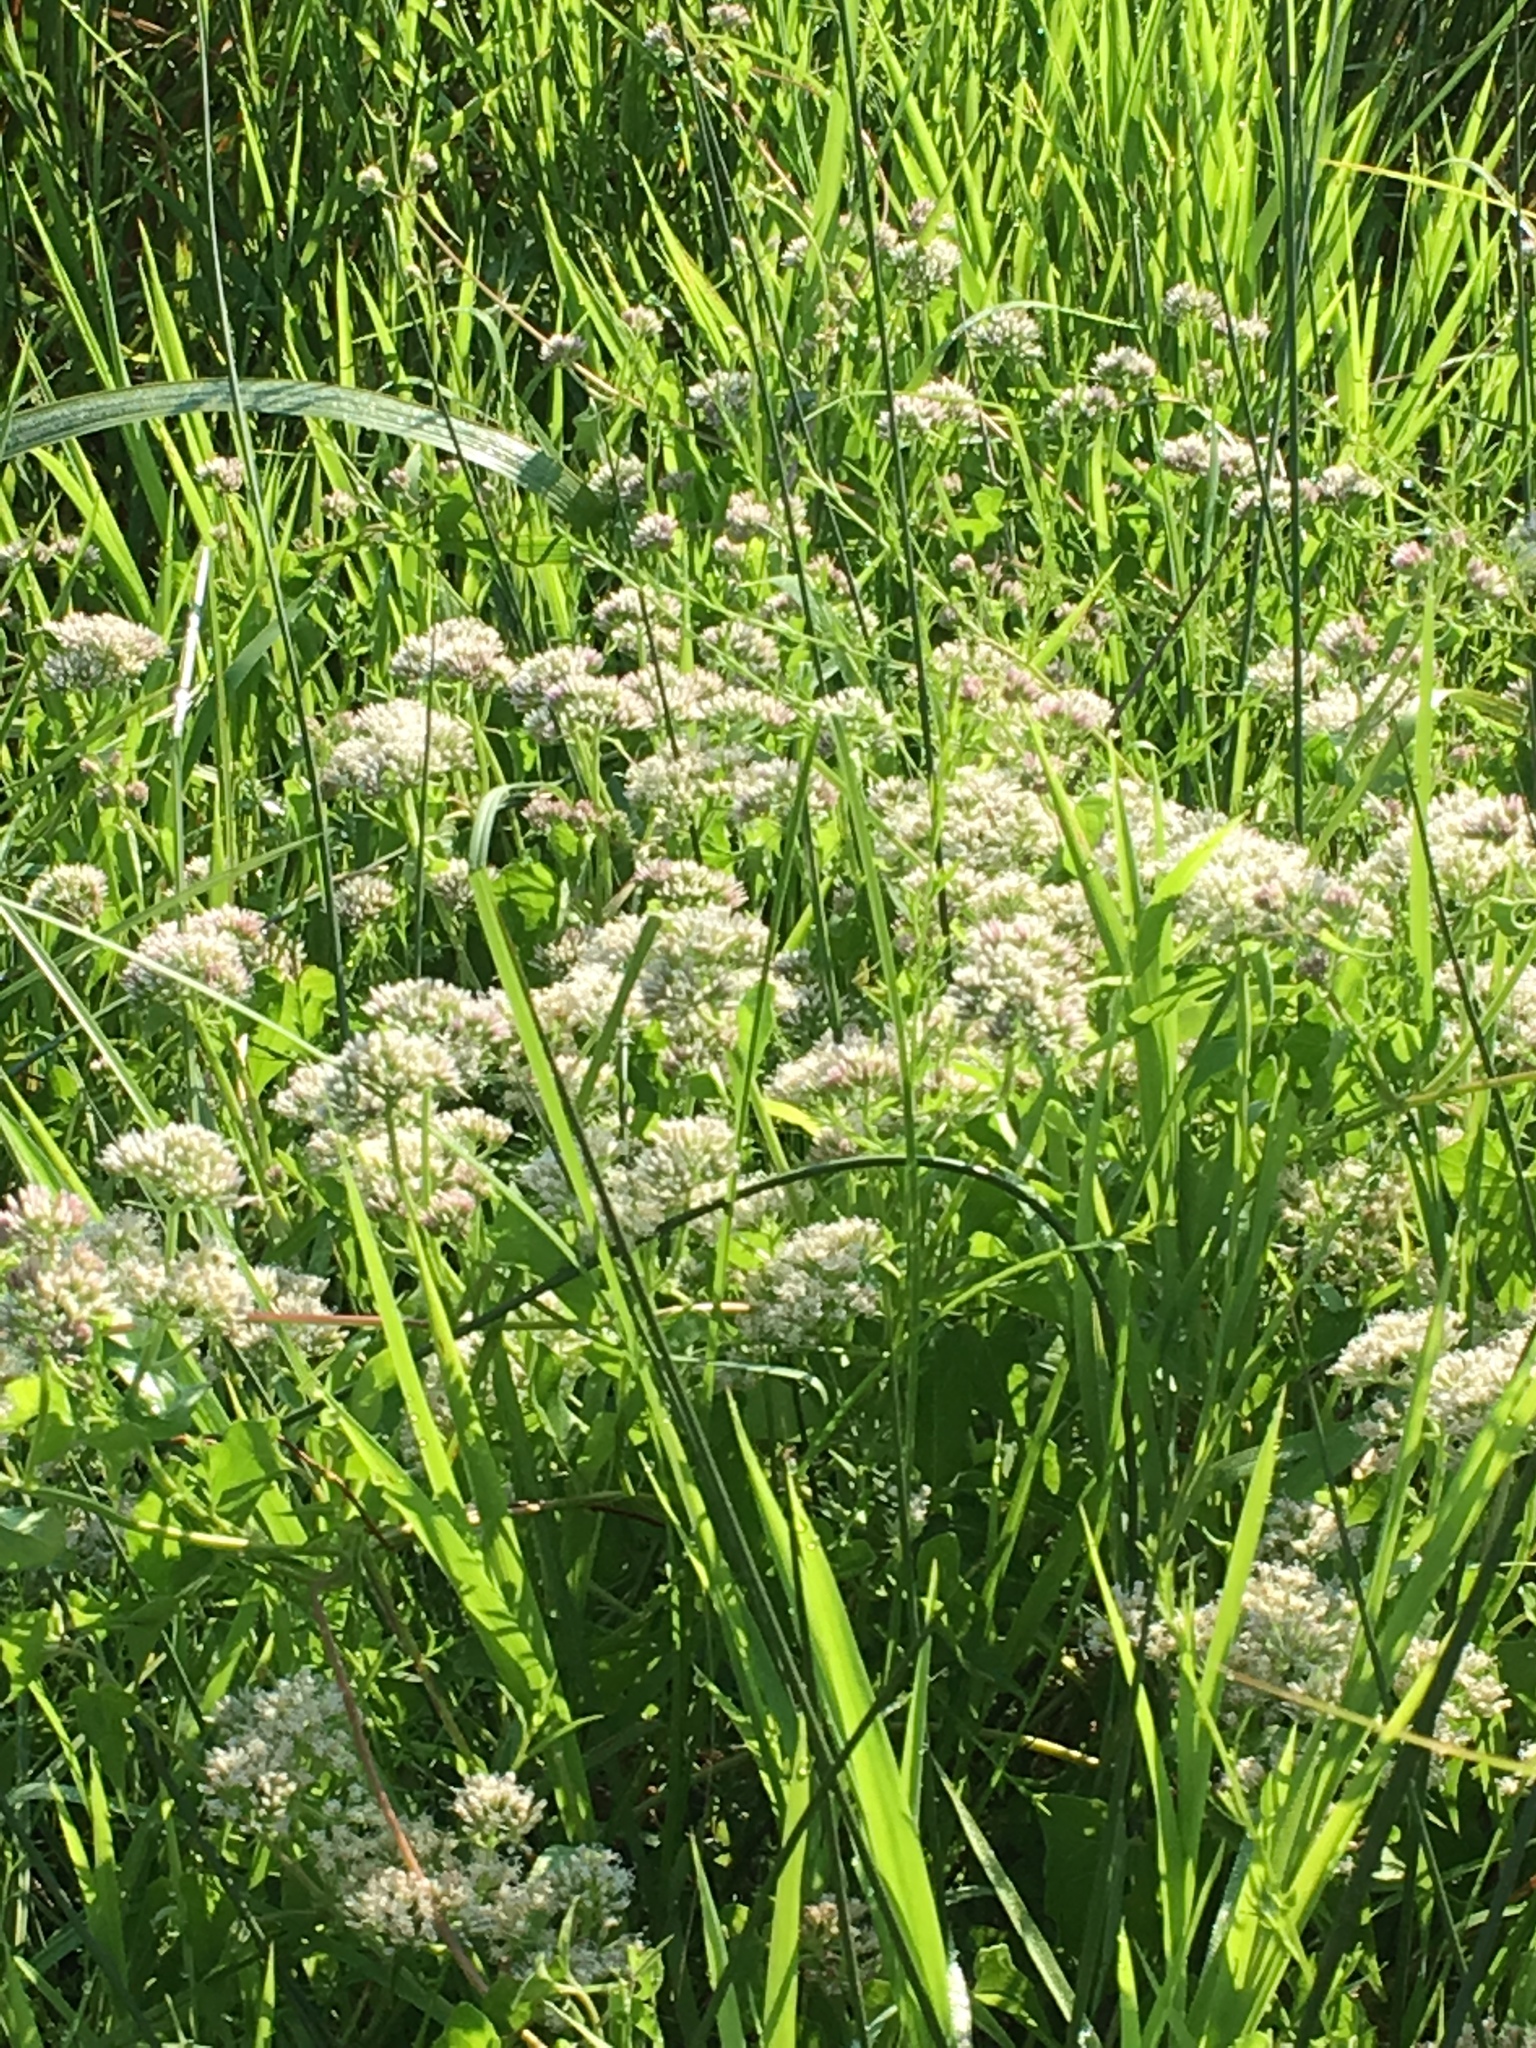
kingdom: Plantae
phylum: Tracheophyta
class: Magnoliopsida
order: Asterales
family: Asteraceae
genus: Mikania
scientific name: Mikania scandens
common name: Climbing hempvine
